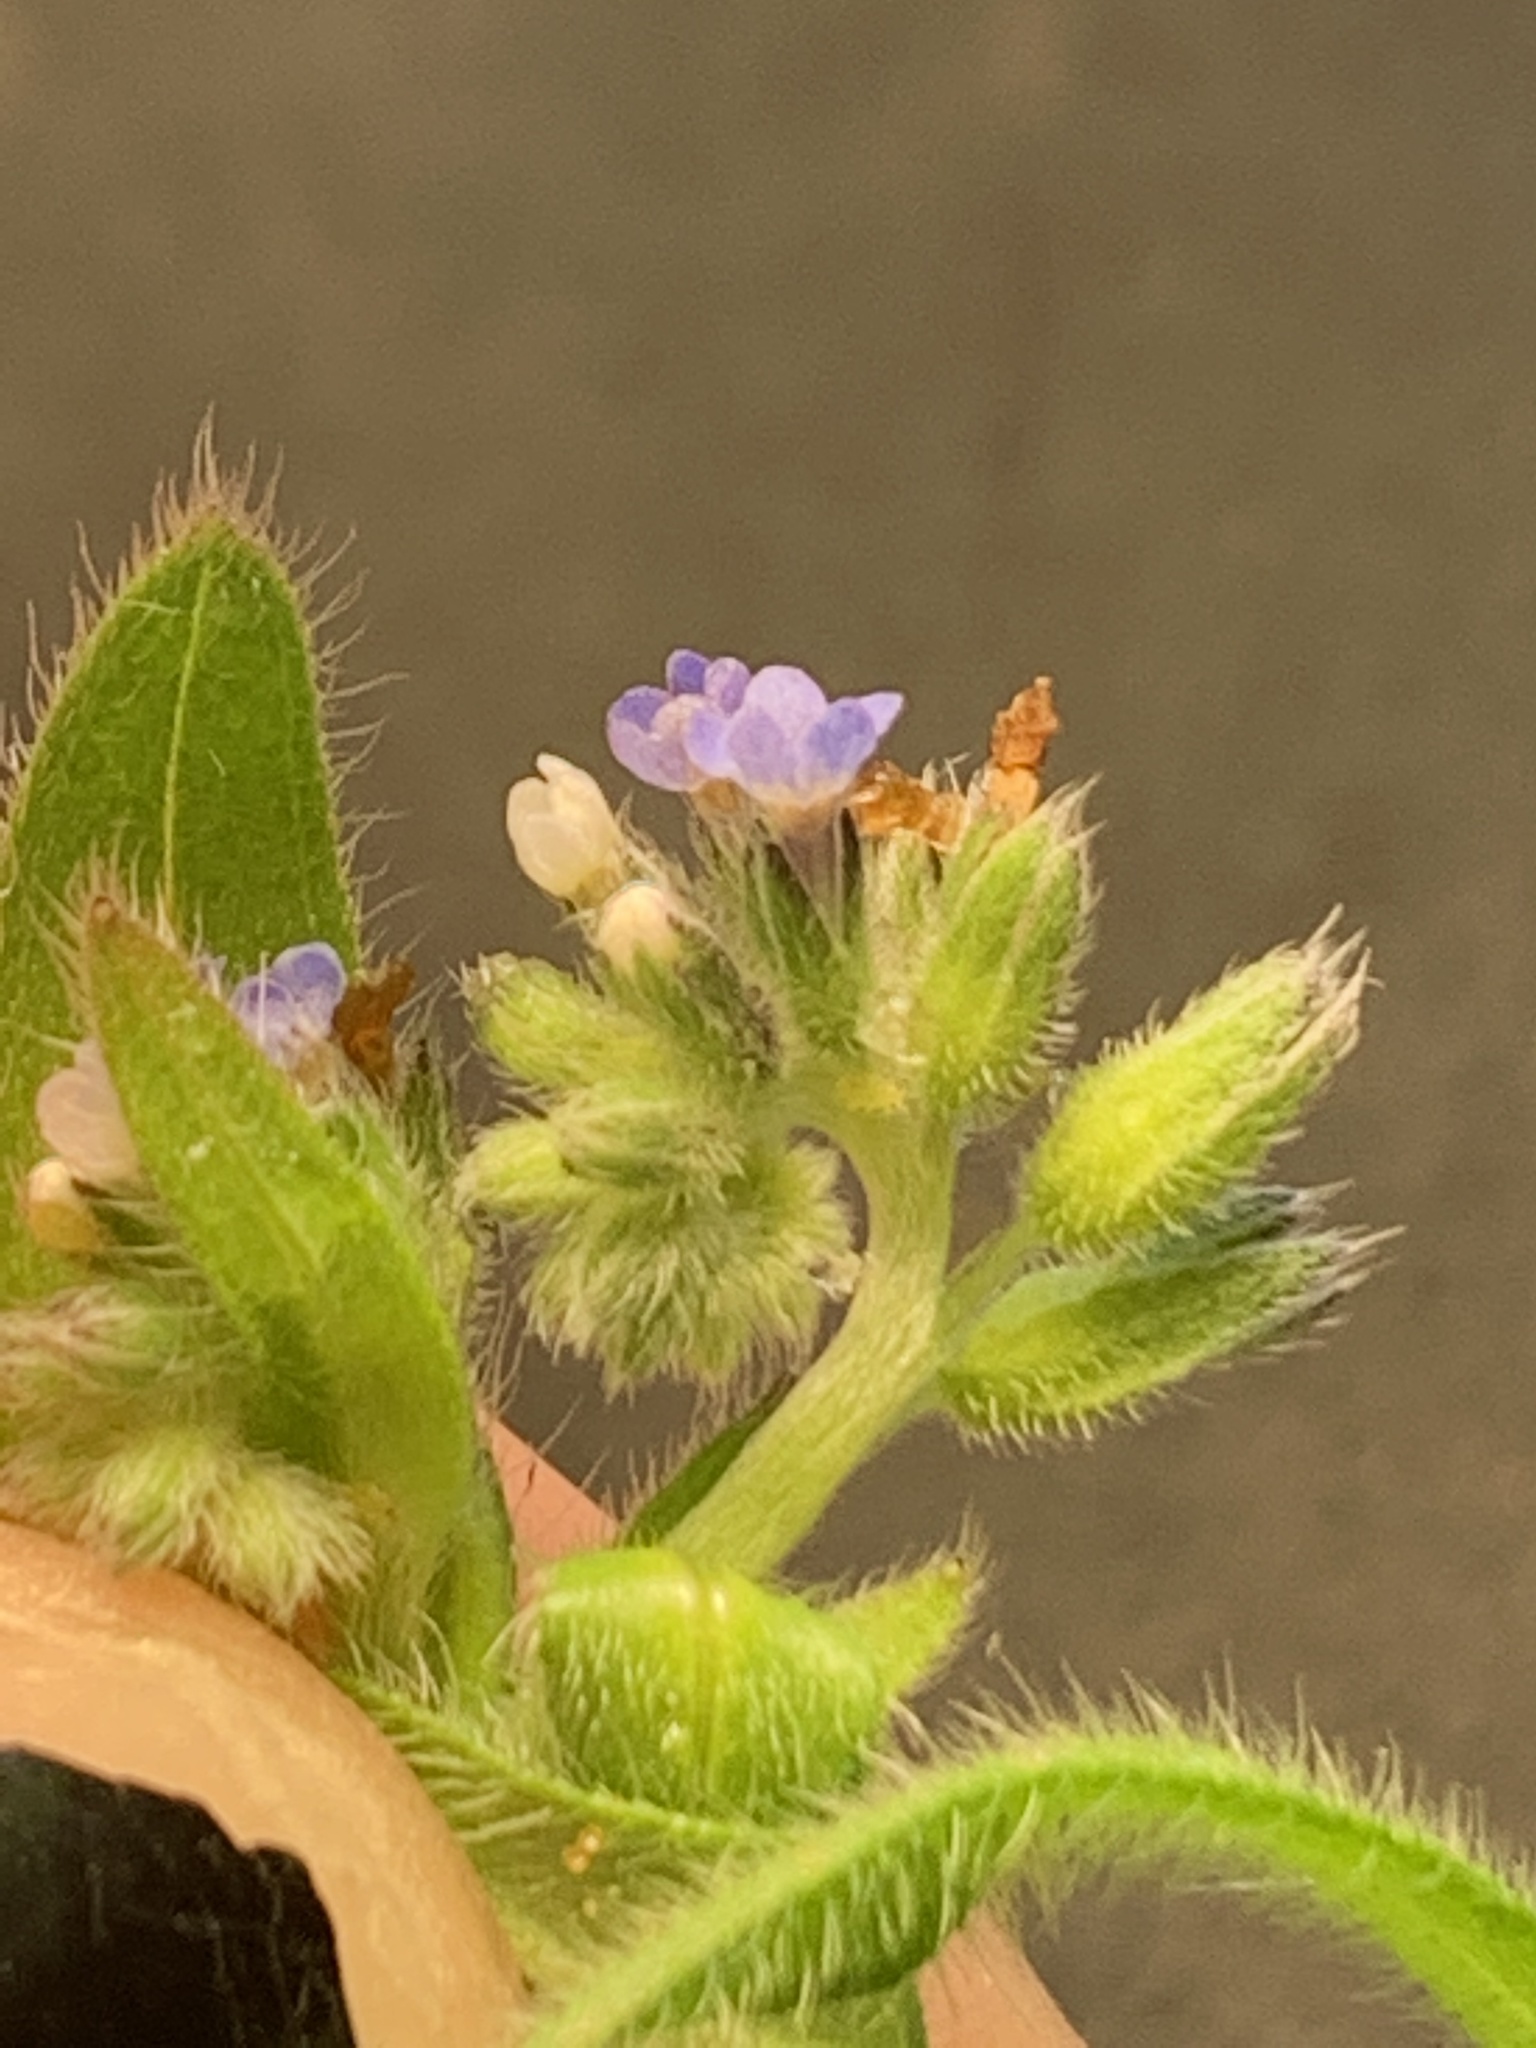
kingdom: Plantae
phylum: Tracheophyta
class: Magnoliopsida
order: Boraginales
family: Boraginaceae
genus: Myosotis
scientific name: Myosotis discolor
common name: Changing forget-me-not
